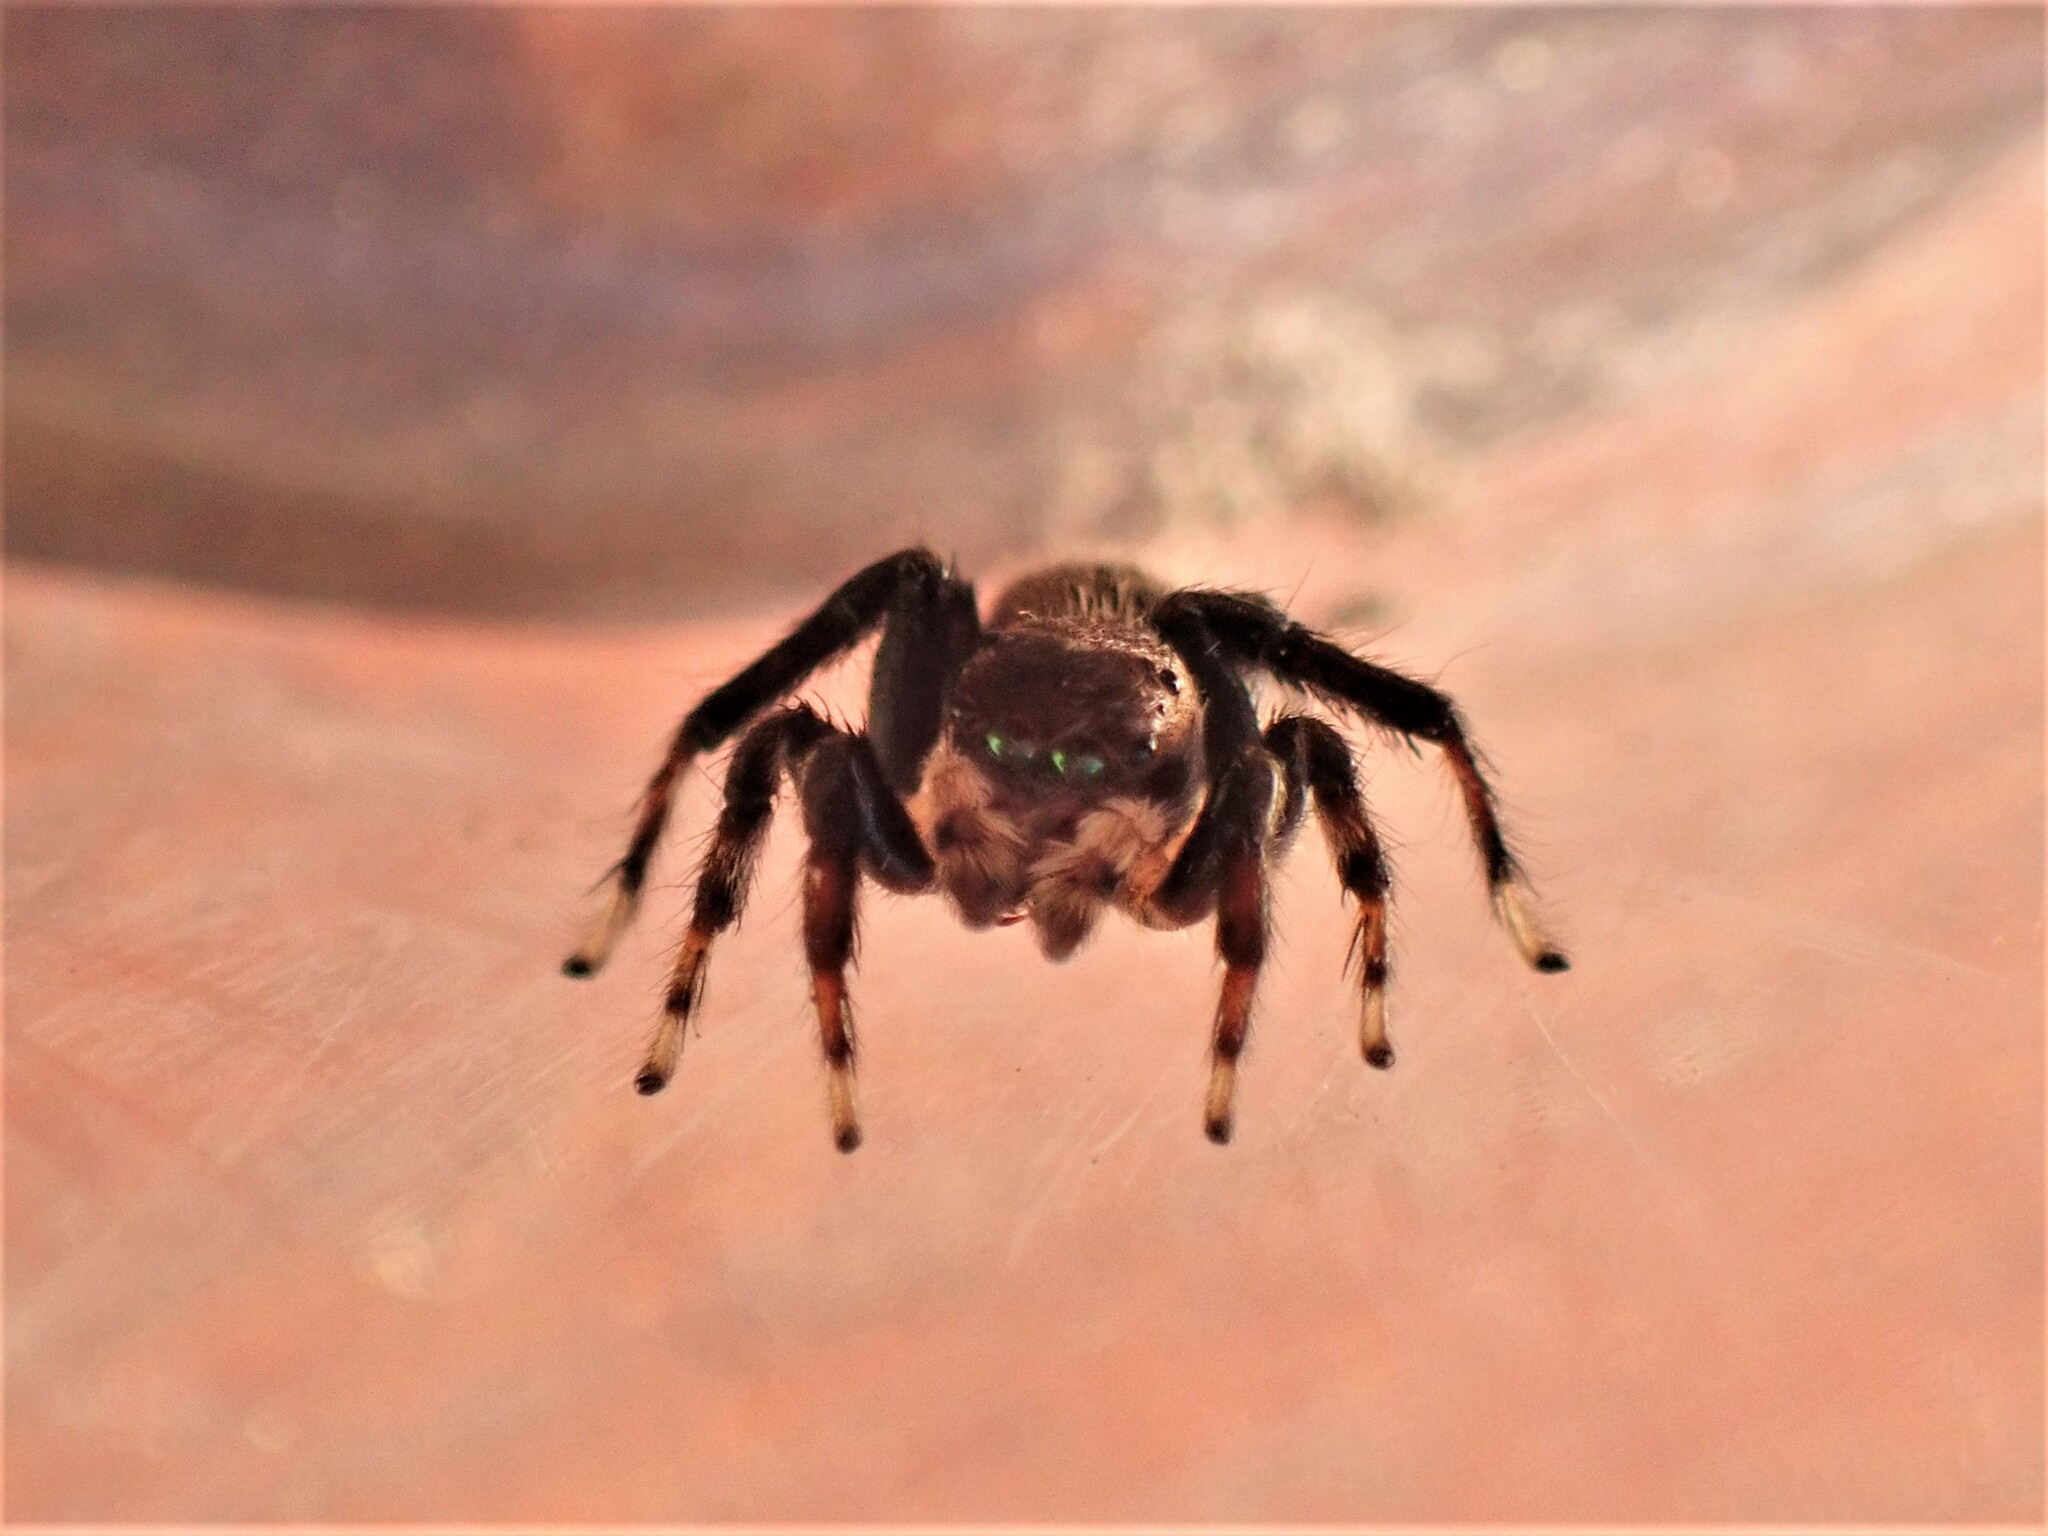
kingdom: Animalia
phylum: Arthropoda
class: Arachnida
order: Araneae
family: Salticidae
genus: Maratus
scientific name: Maratus griseus
